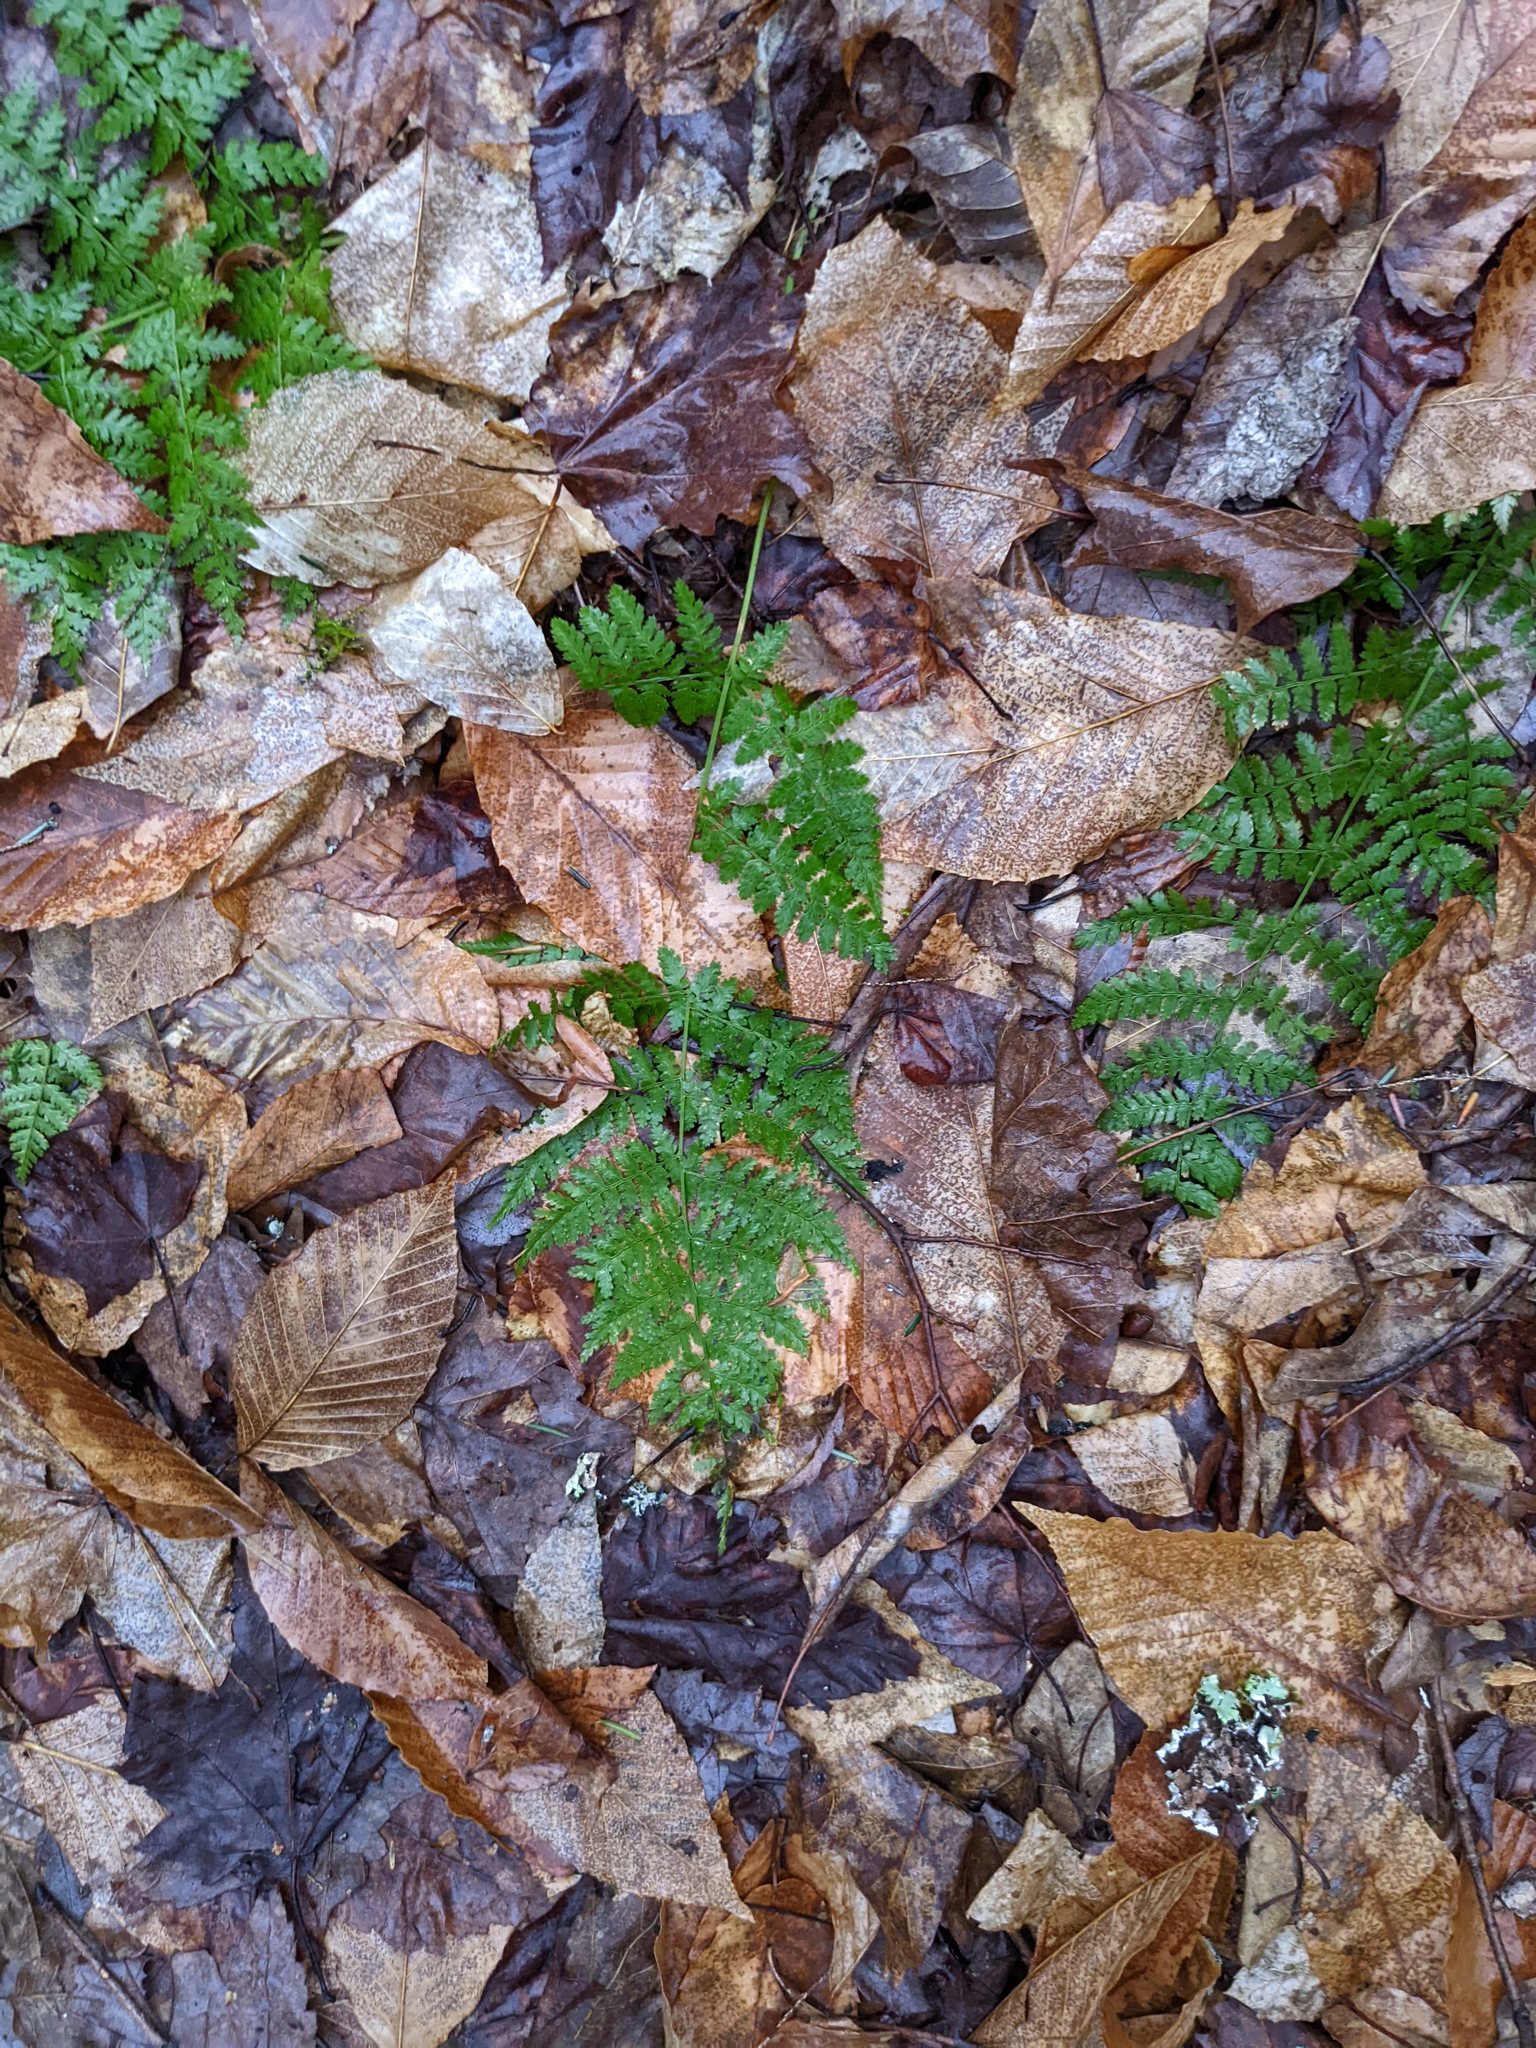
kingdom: Plantae
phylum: Tracheophyta
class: Polypodiopsida
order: Polypodiales
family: Dryopteridaceae
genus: Dryopteris
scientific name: Dryopteris intermedia
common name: Evergreen wood fern
